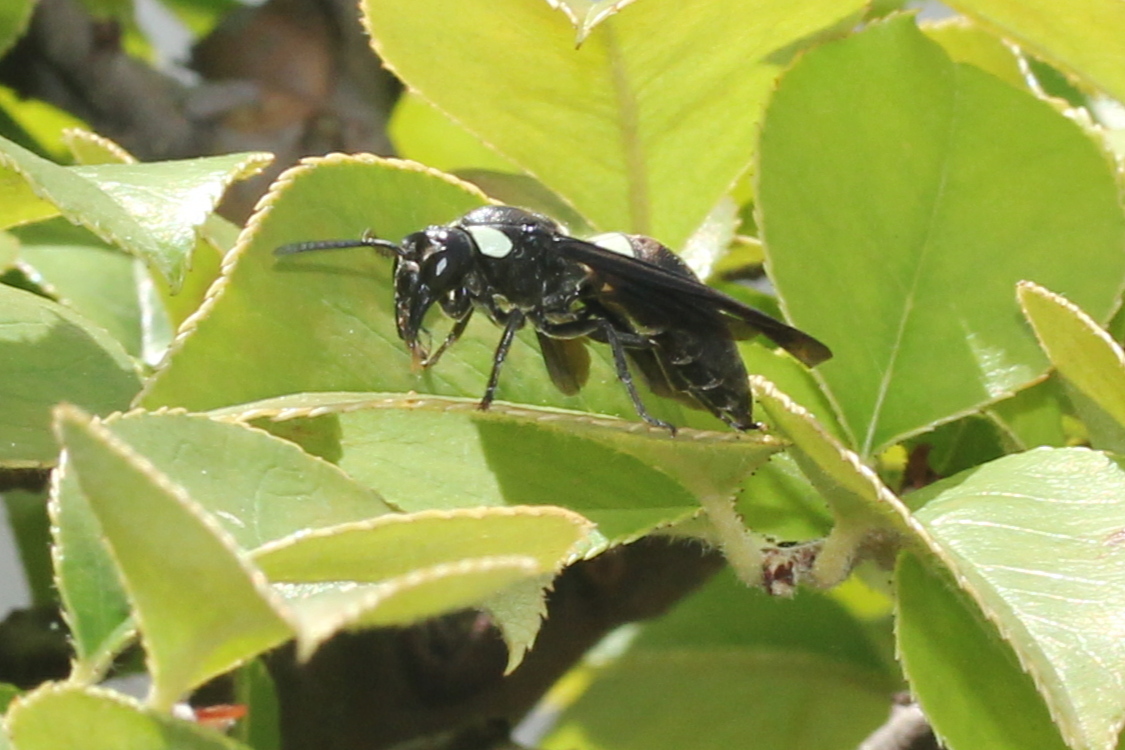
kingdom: Animalia
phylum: Arthropoda
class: Insecta
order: Hymenoptera
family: Eumenidae
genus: Monobia
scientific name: Monobia quadridens
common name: Four-toothed mason wasp
